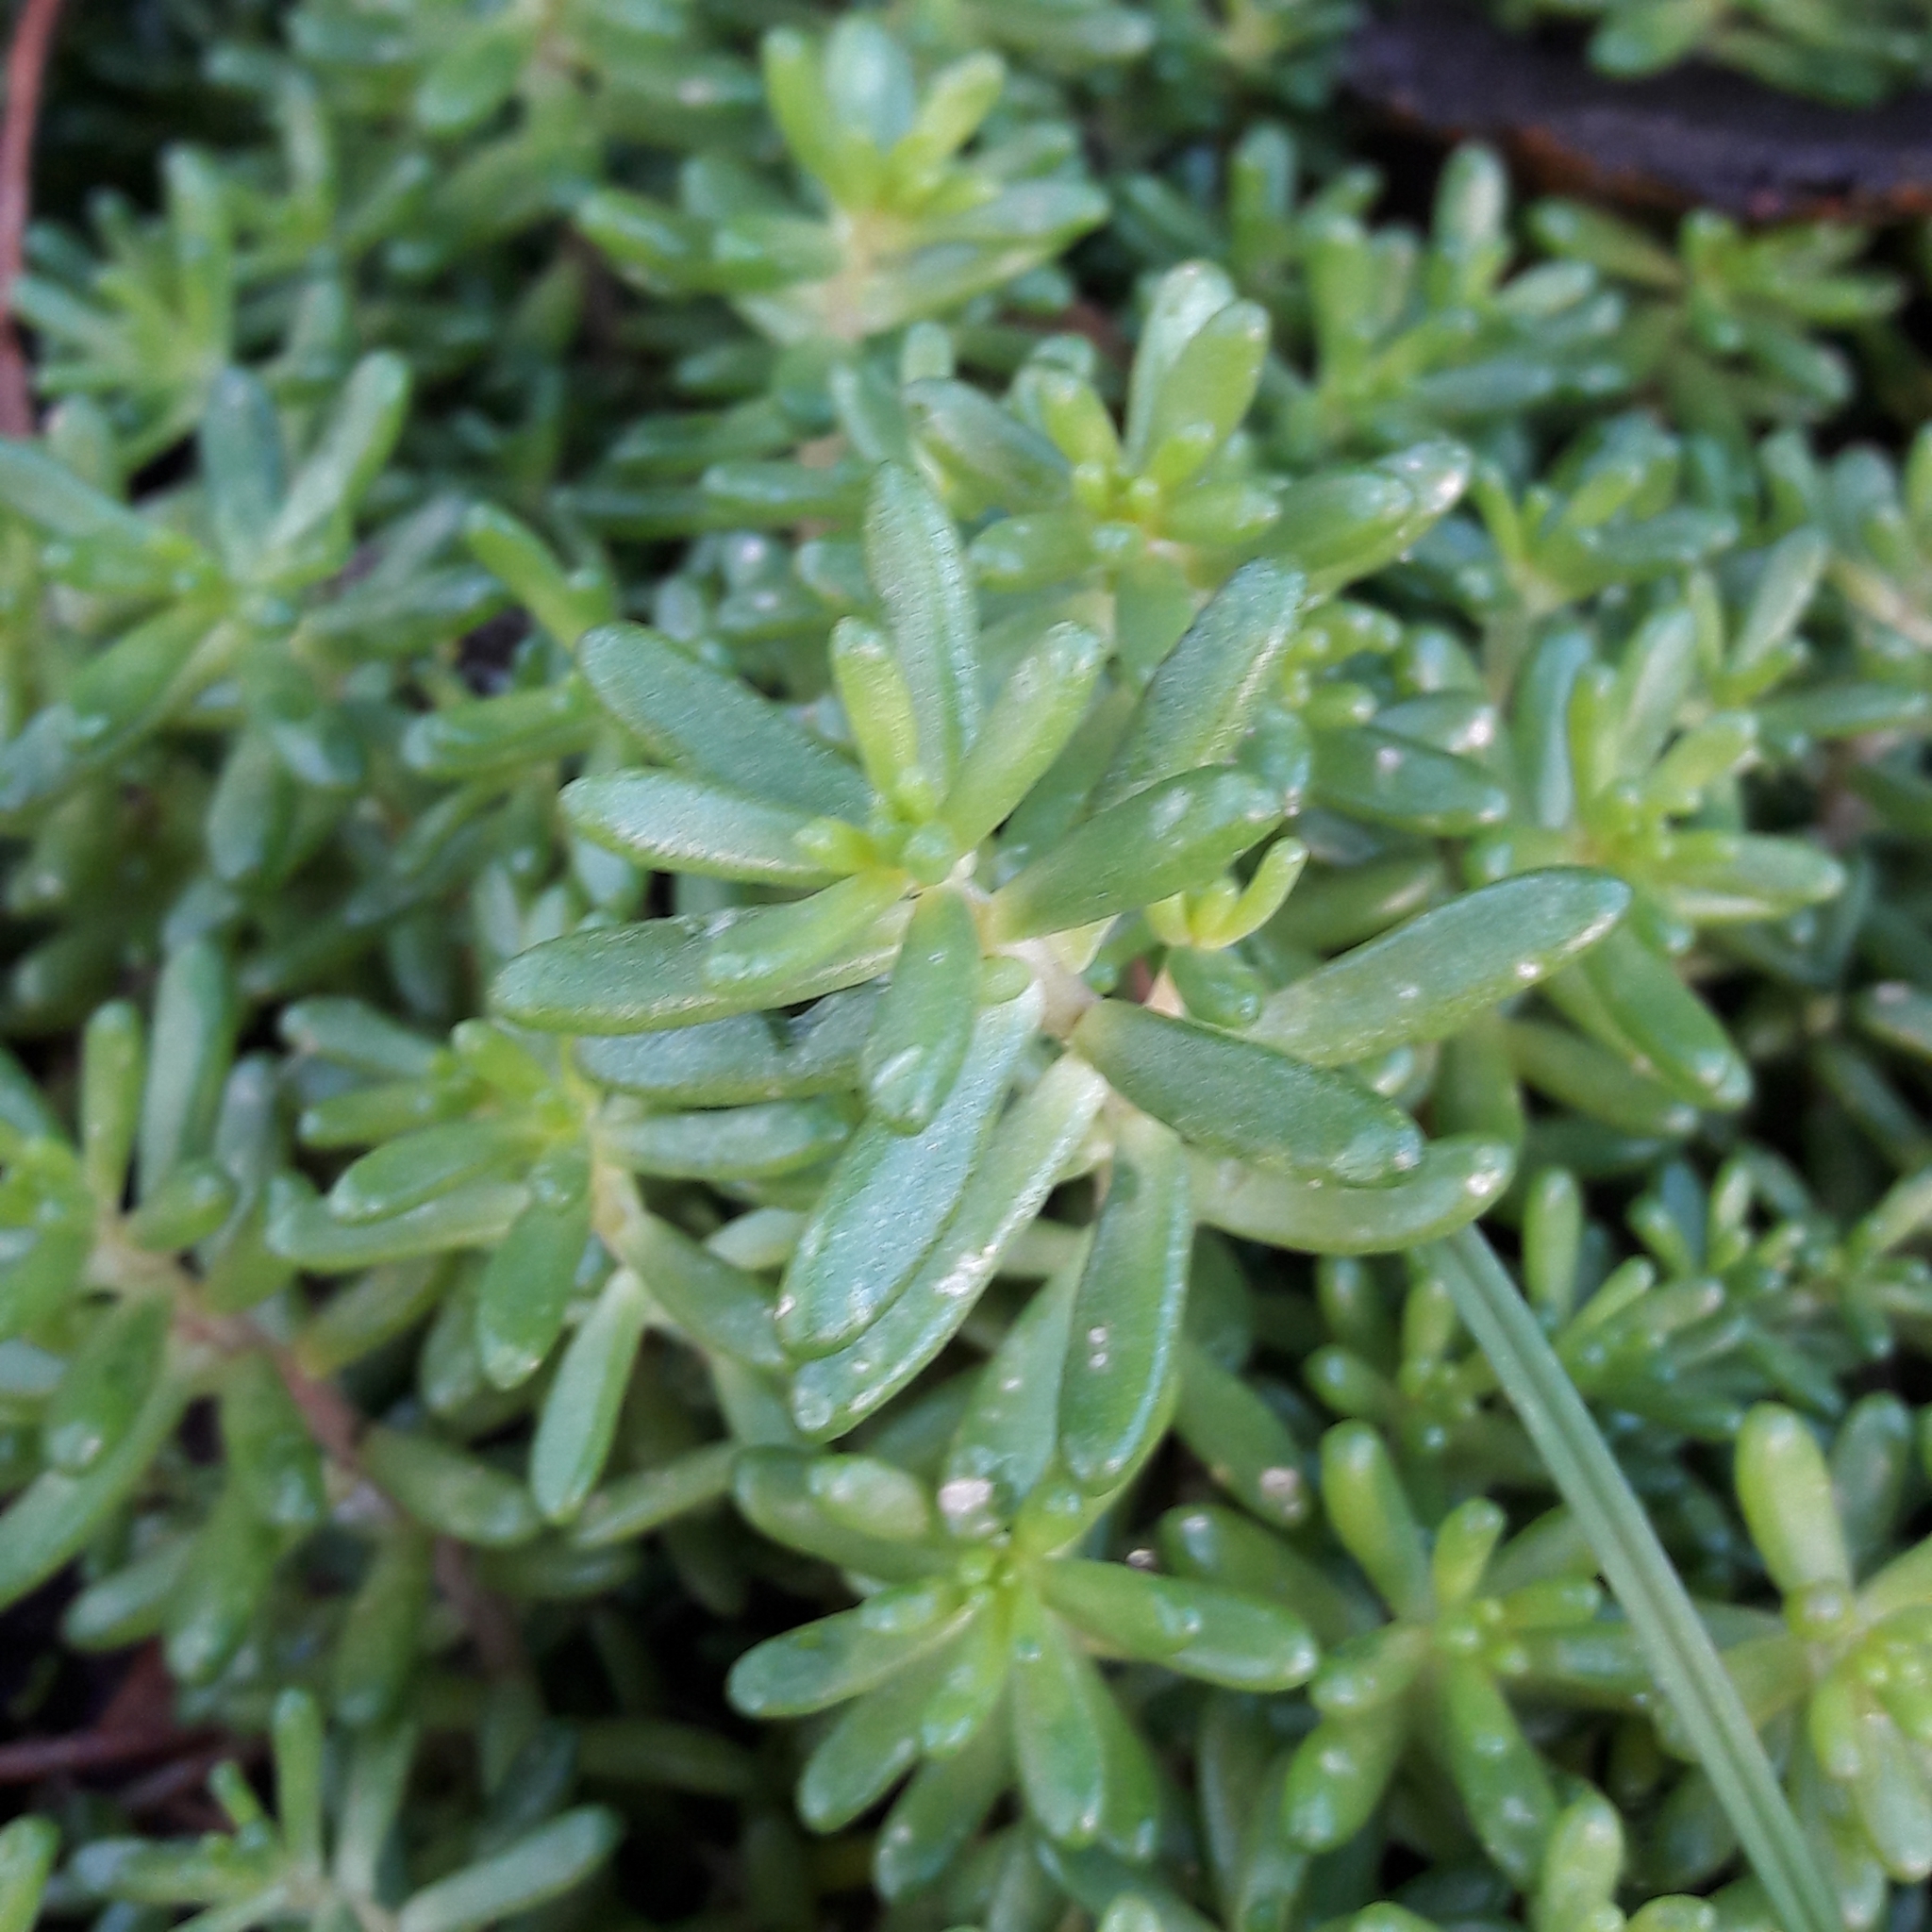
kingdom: Plantae
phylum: Tracheophyta
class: Magnoliopsida
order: Saxifragales
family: Crassulaceae
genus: Sedum
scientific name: Sedum album
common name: White stonecrop
